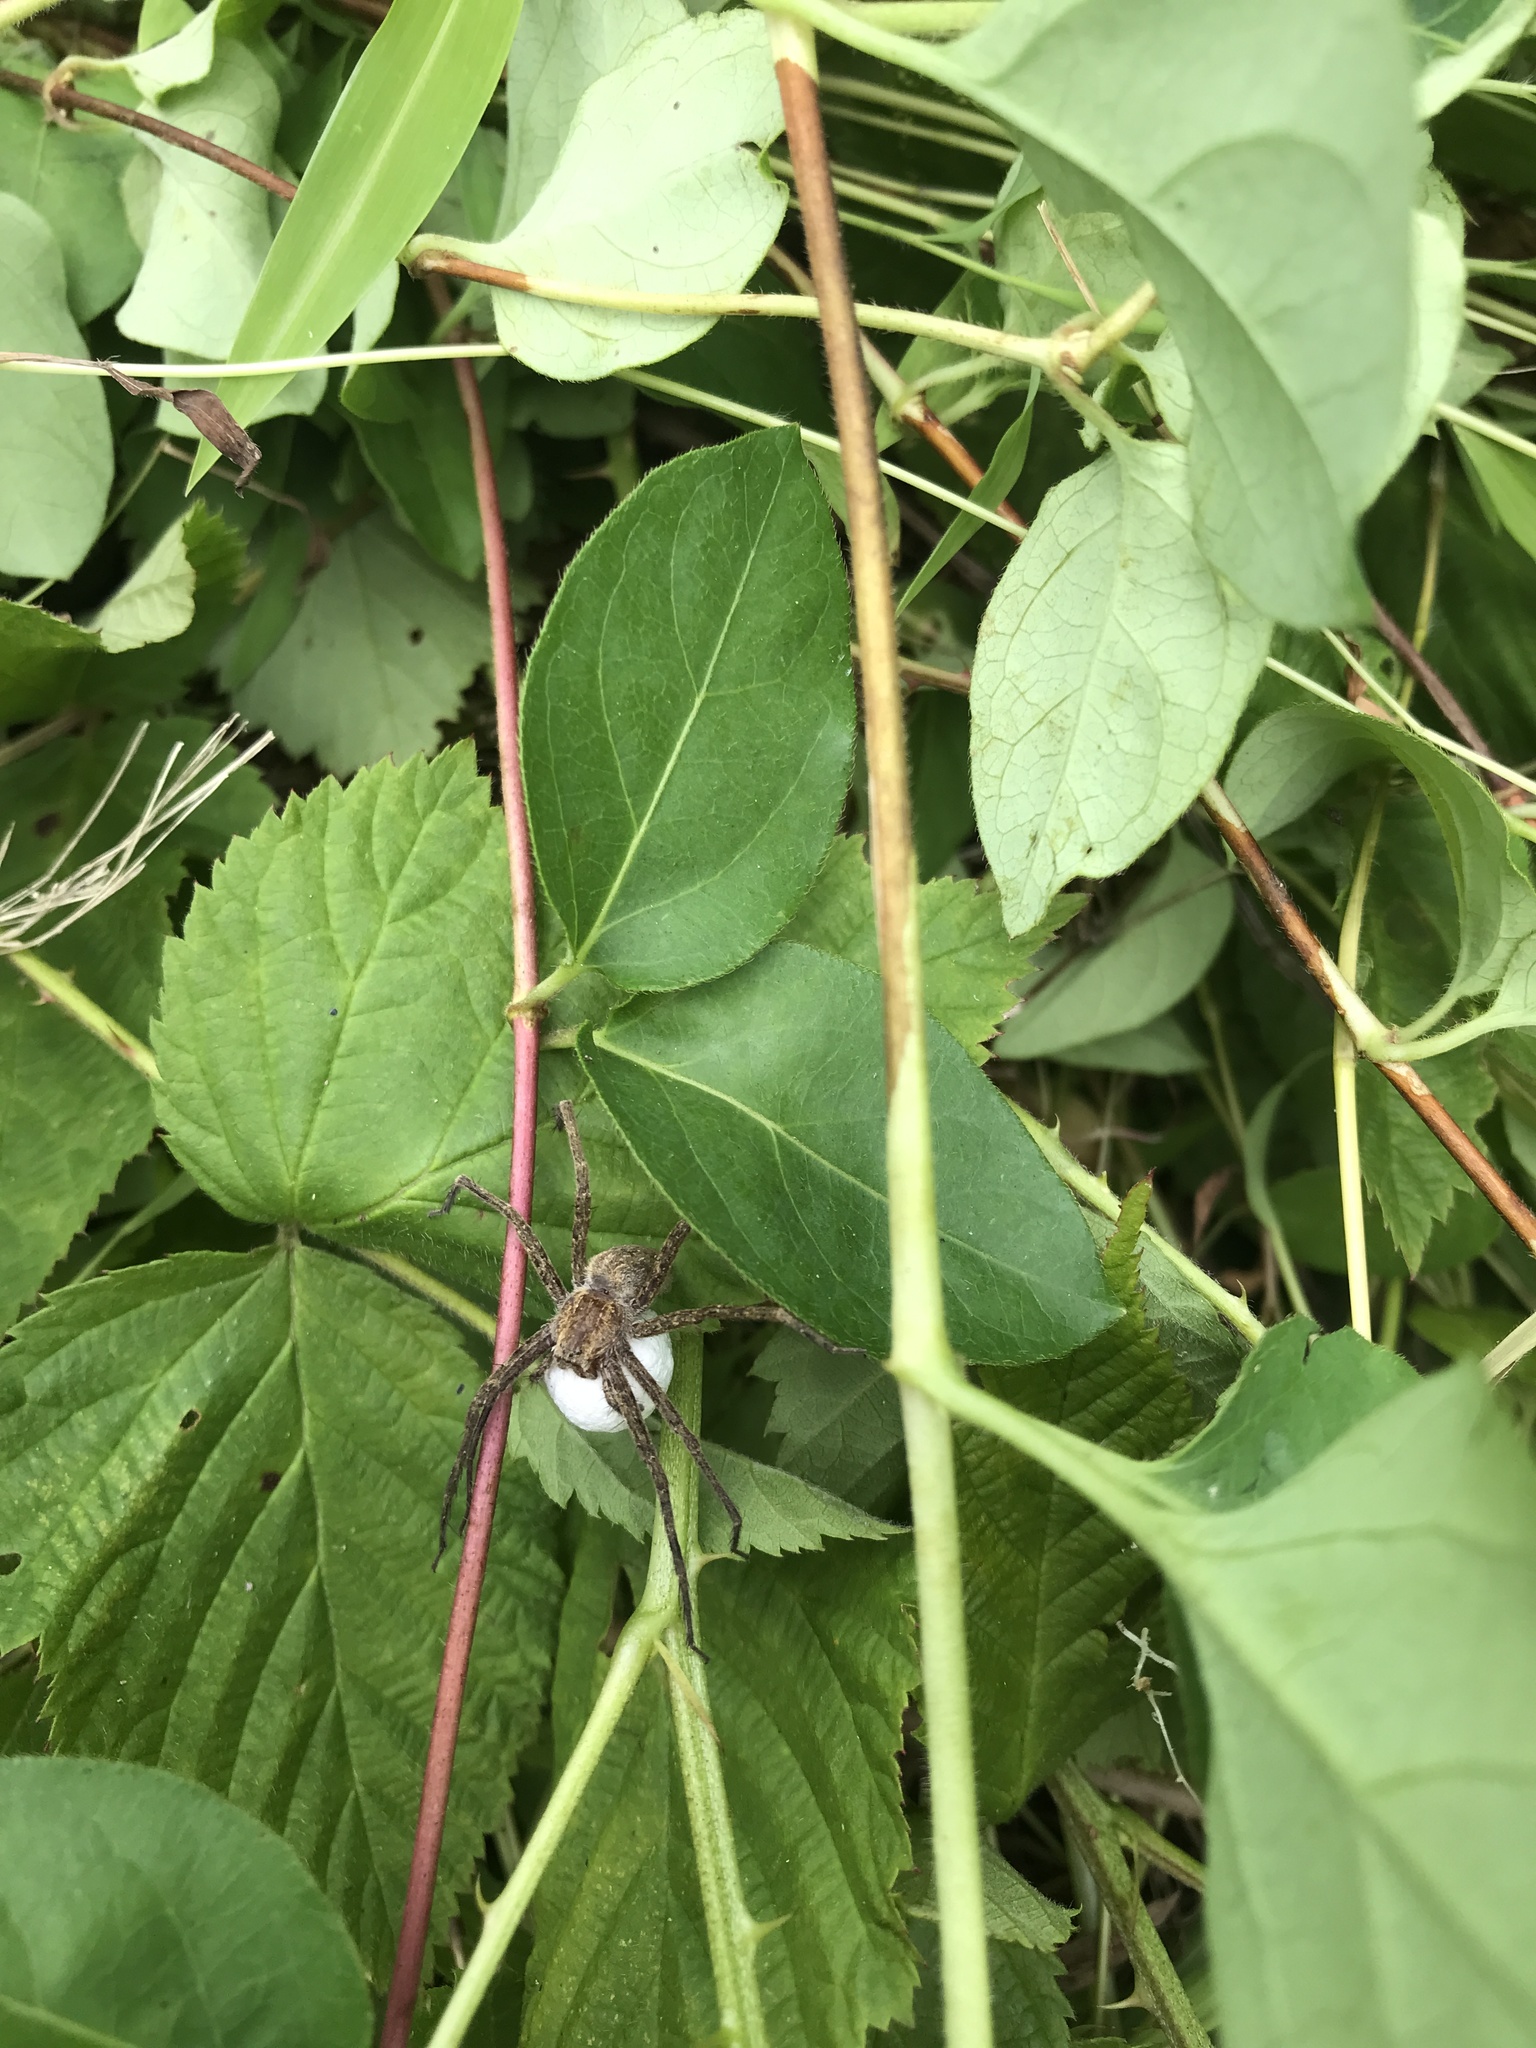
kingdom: Animalia
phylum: Arthropoda
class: Arachnida
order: Araneae
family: Pisauridae
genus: Pisaurina
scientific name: Pisaurina mira
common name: American nursery web spider
